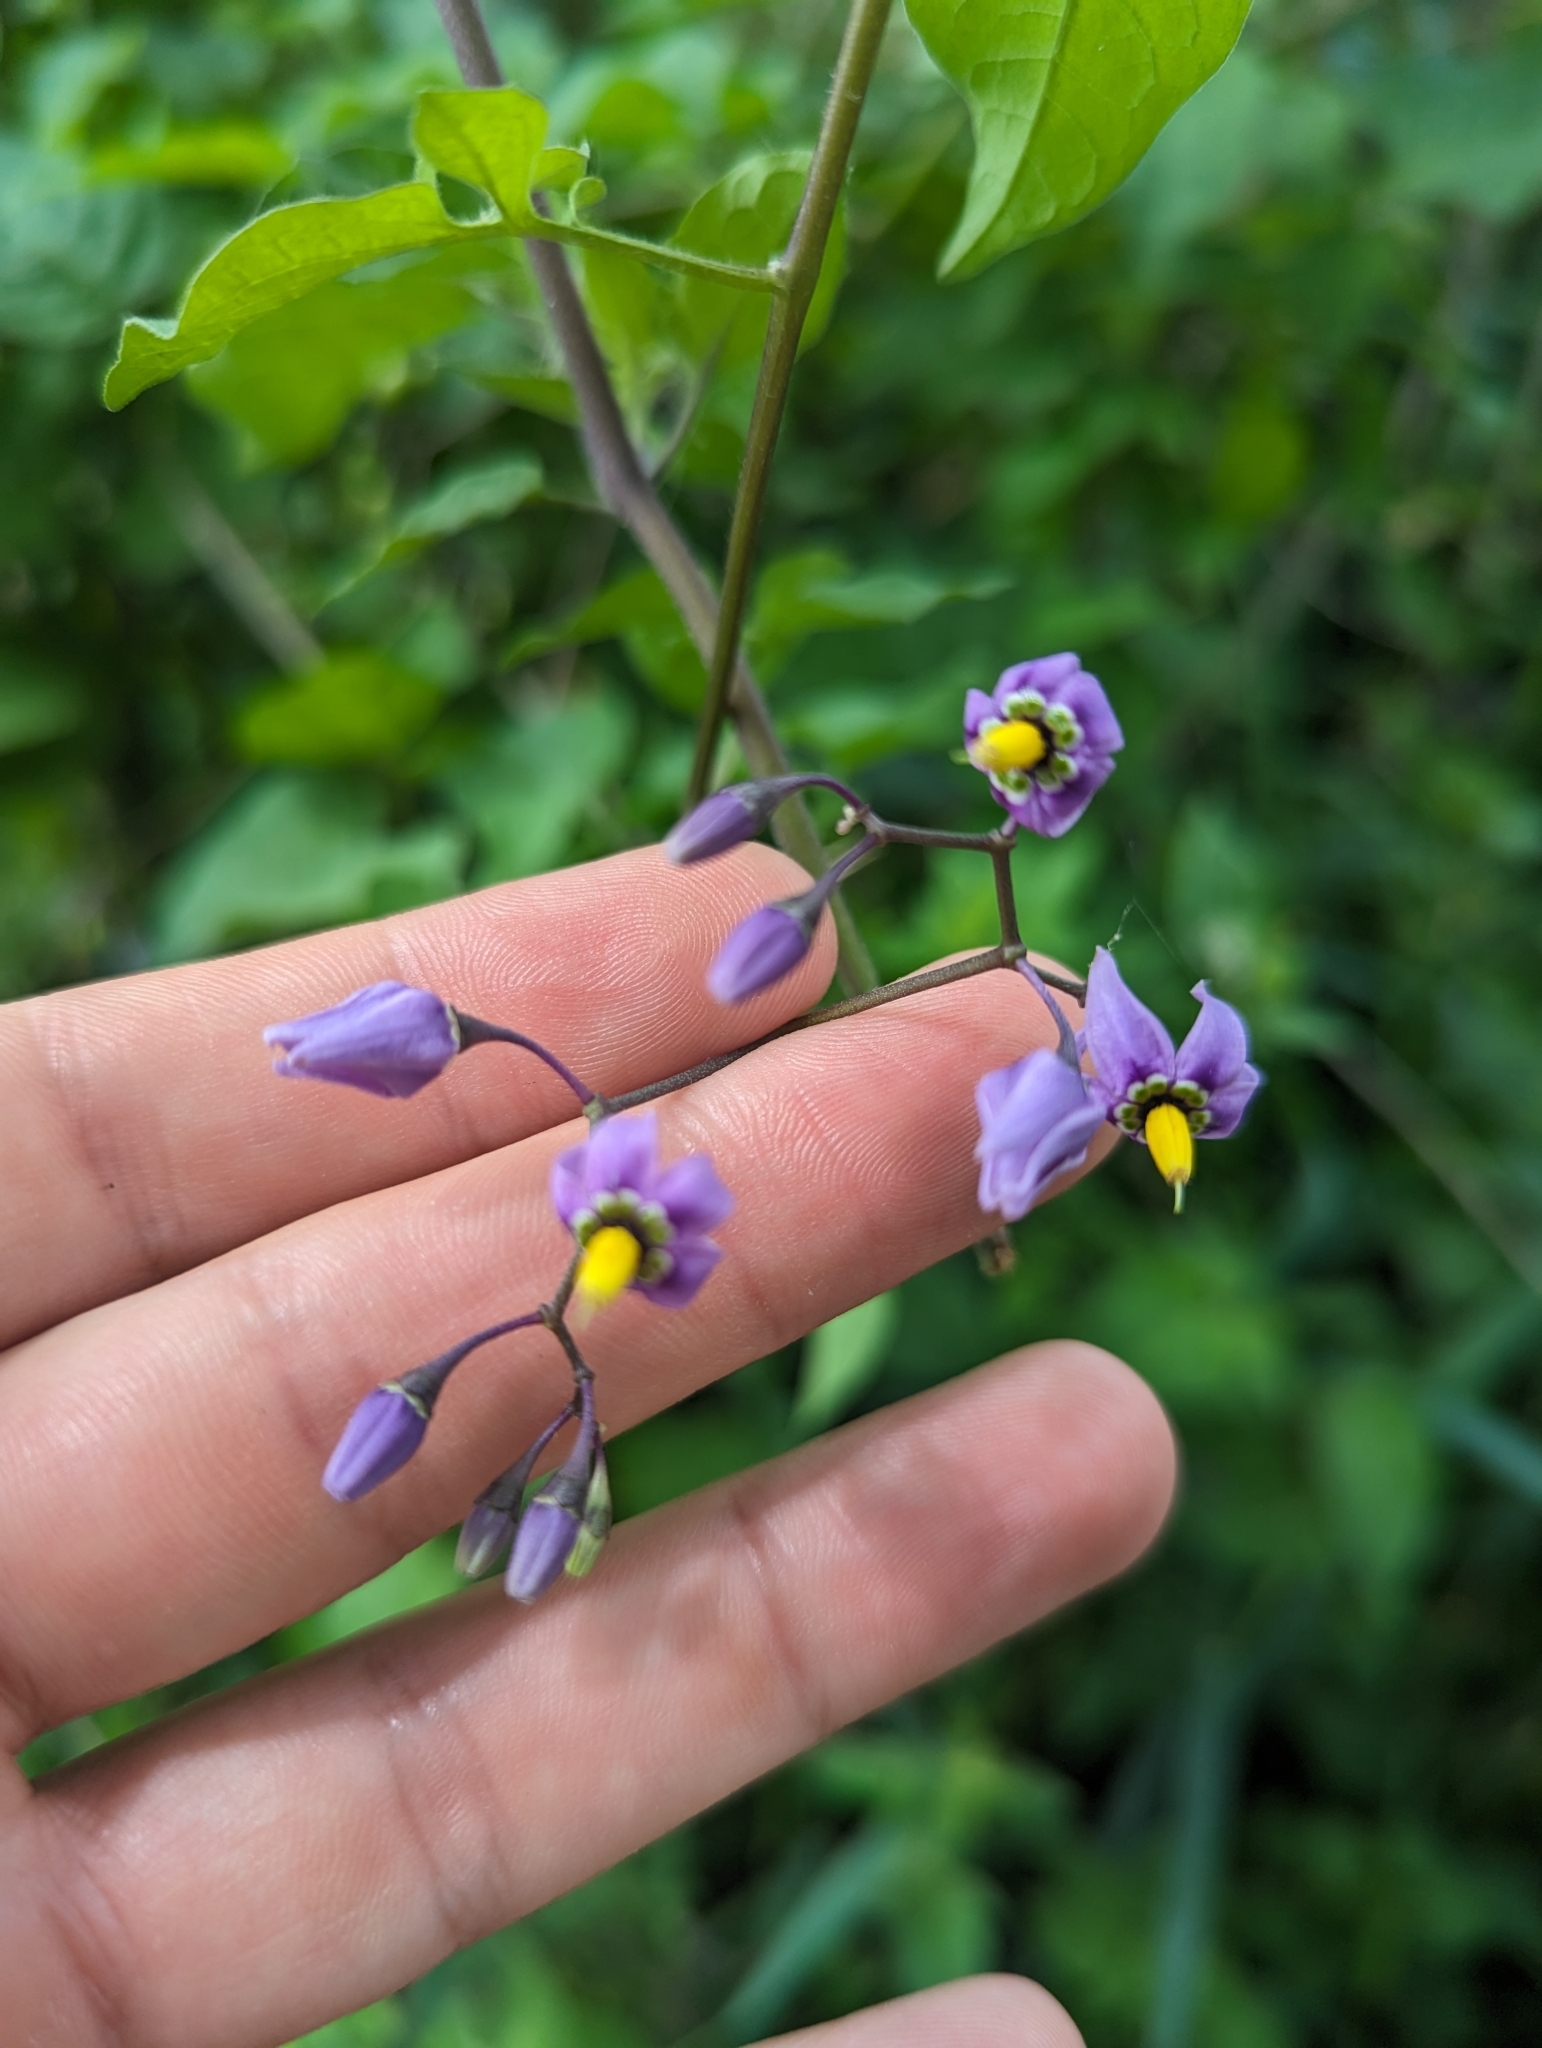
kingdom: Plantae
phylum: Tracheophyta
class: Magnoliopsida
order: Solanales
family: Solanaceae
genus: Solanum
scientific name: Solanum dulcamara
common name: Climbing nightshade
